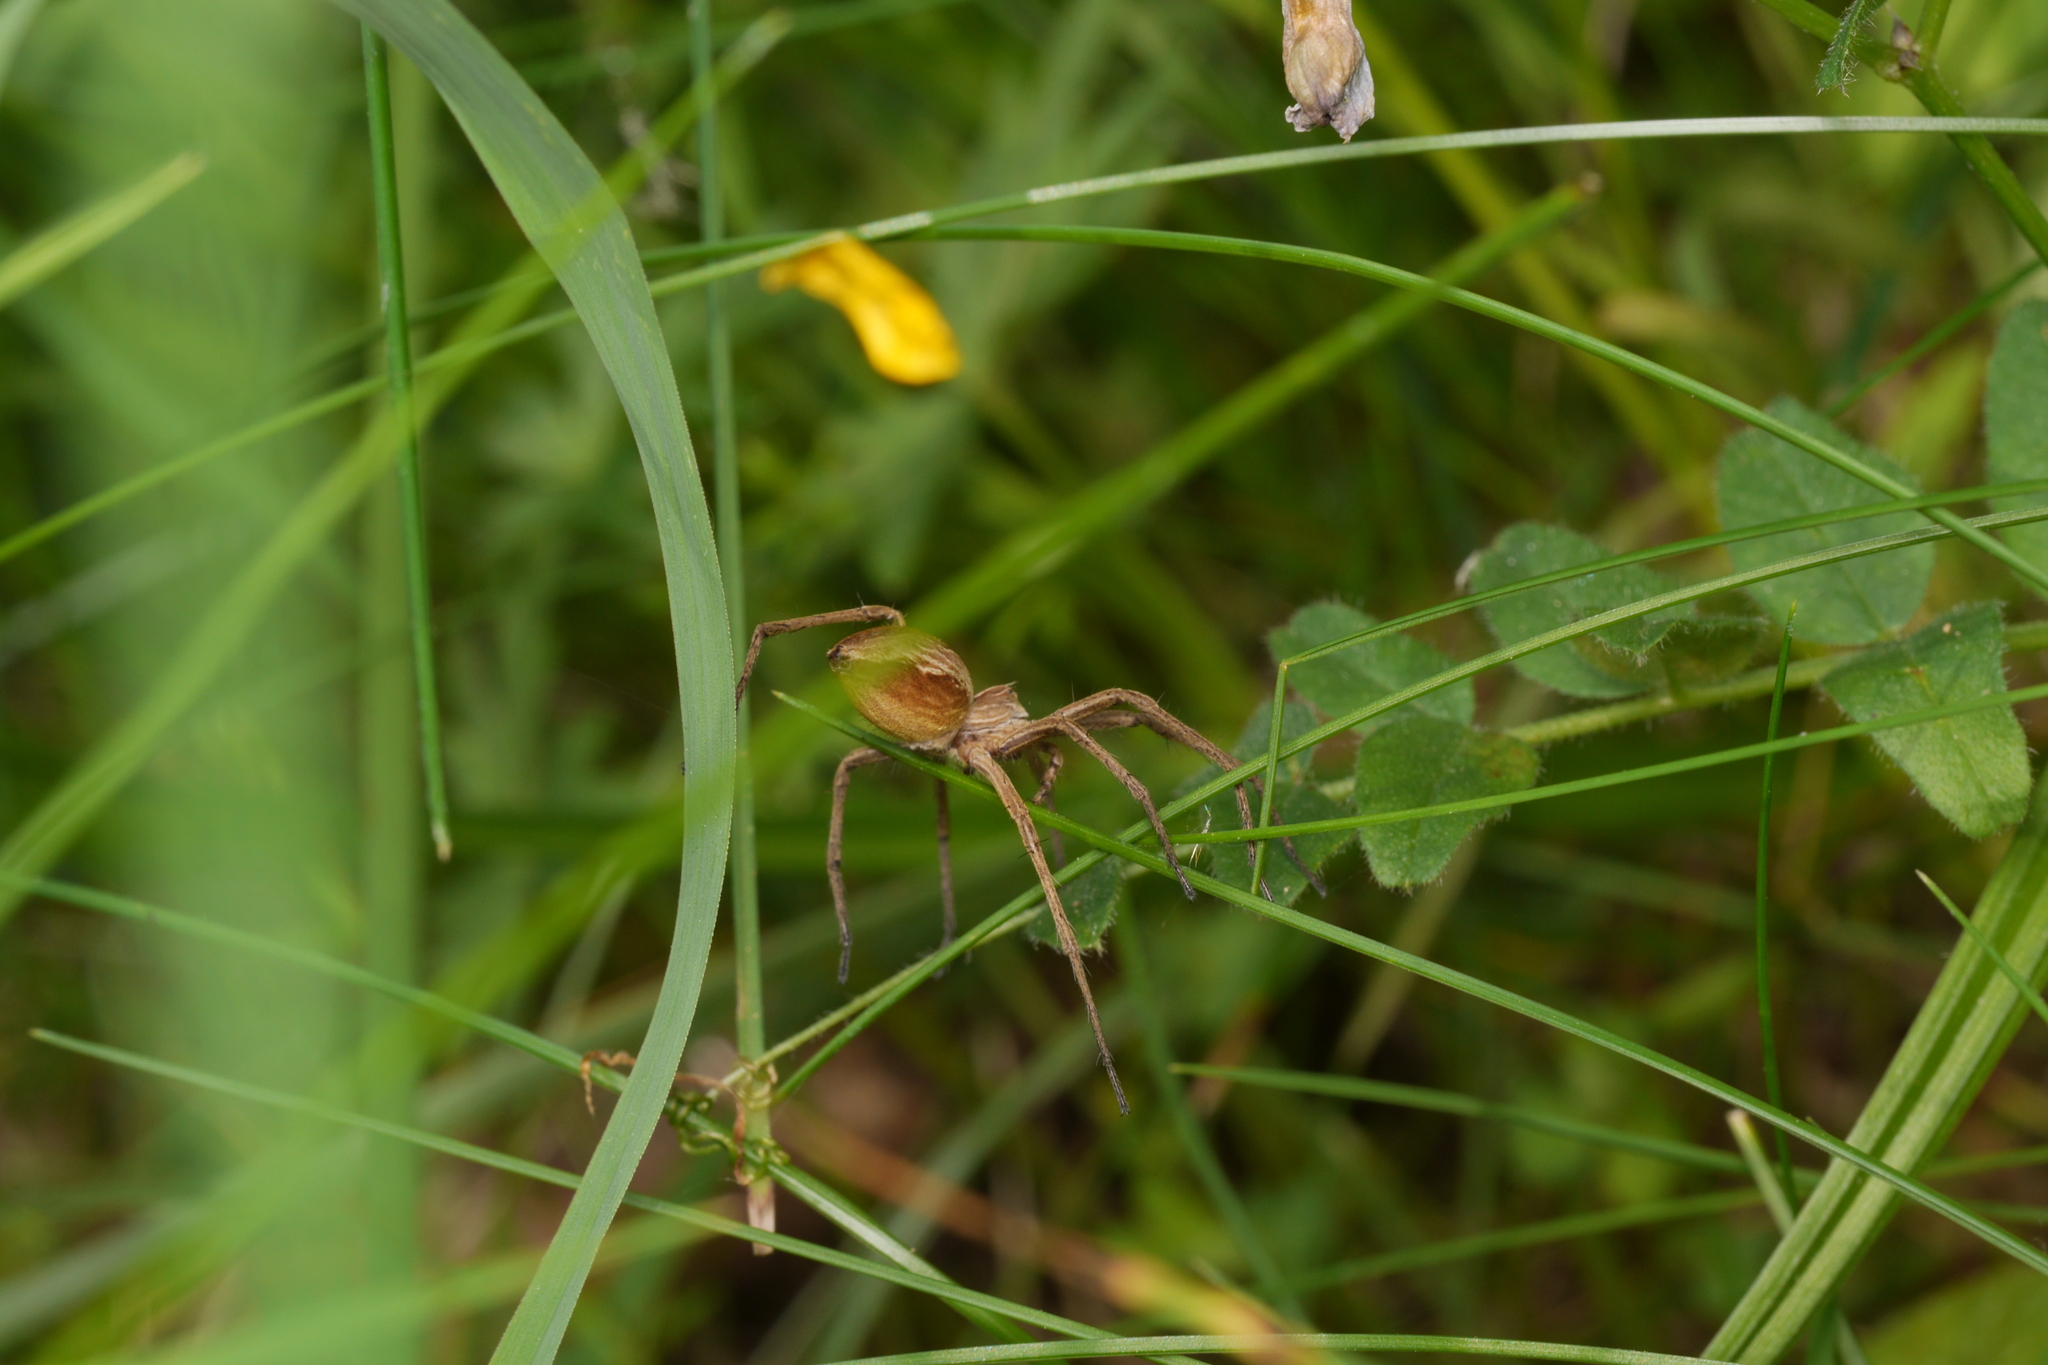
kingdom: Animalia
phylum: Arthropoda
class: Arachnida
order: Araneae
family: Pisauridae
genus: Pisaura
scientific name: Pisaura mirabilis
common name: Tent spider
